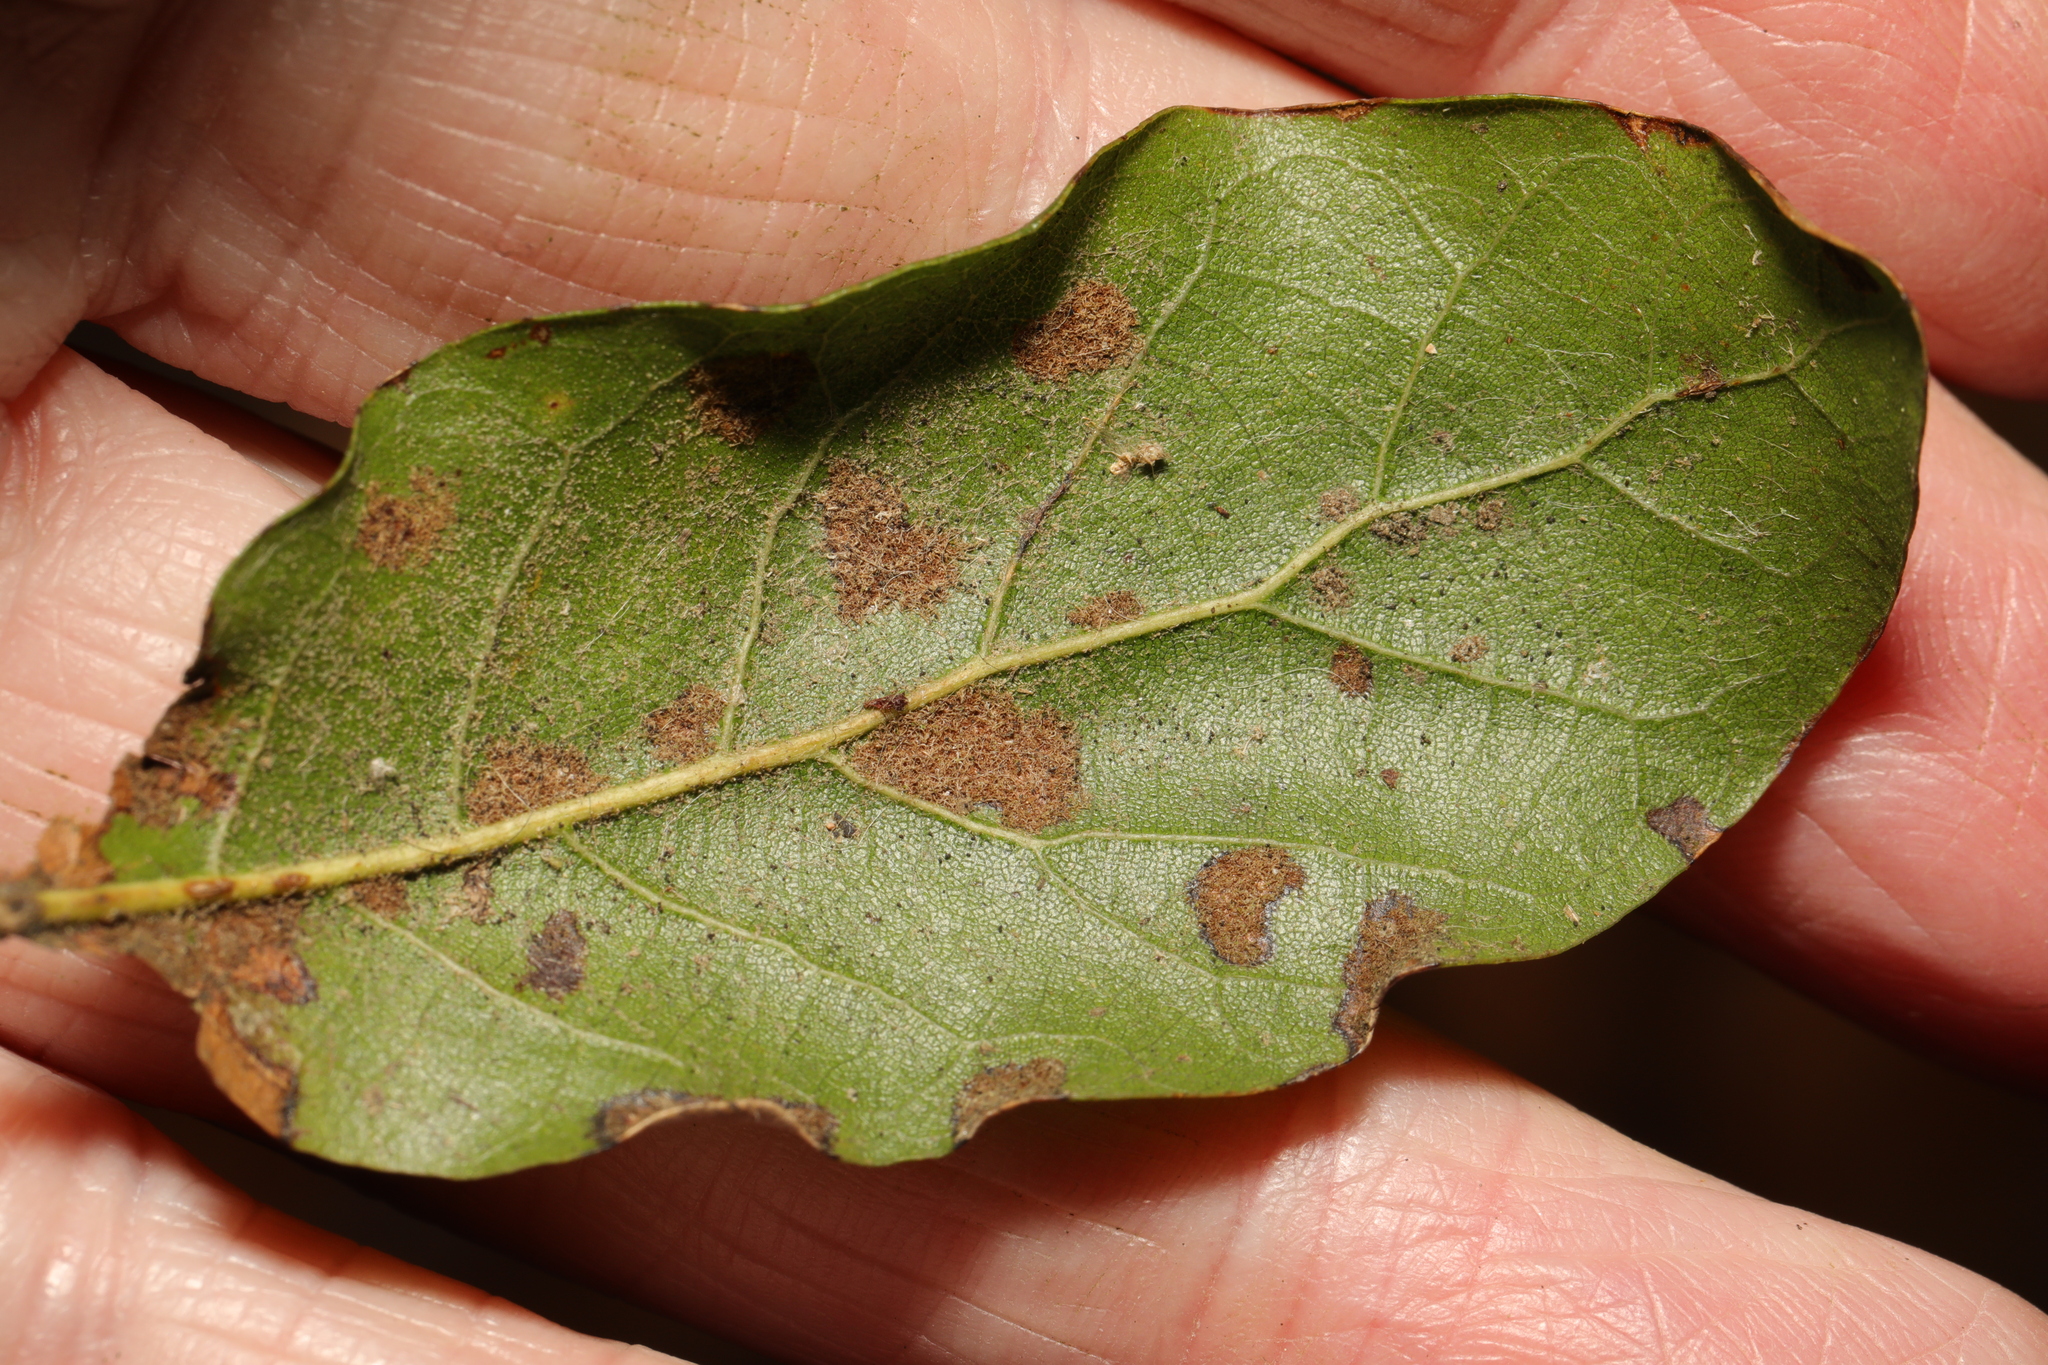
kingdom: Animalia
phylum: Arthropoda
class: Arachnida
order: Trombidiformes
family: Eriophyidae
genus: Aceria
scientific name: Aceria ilicis
